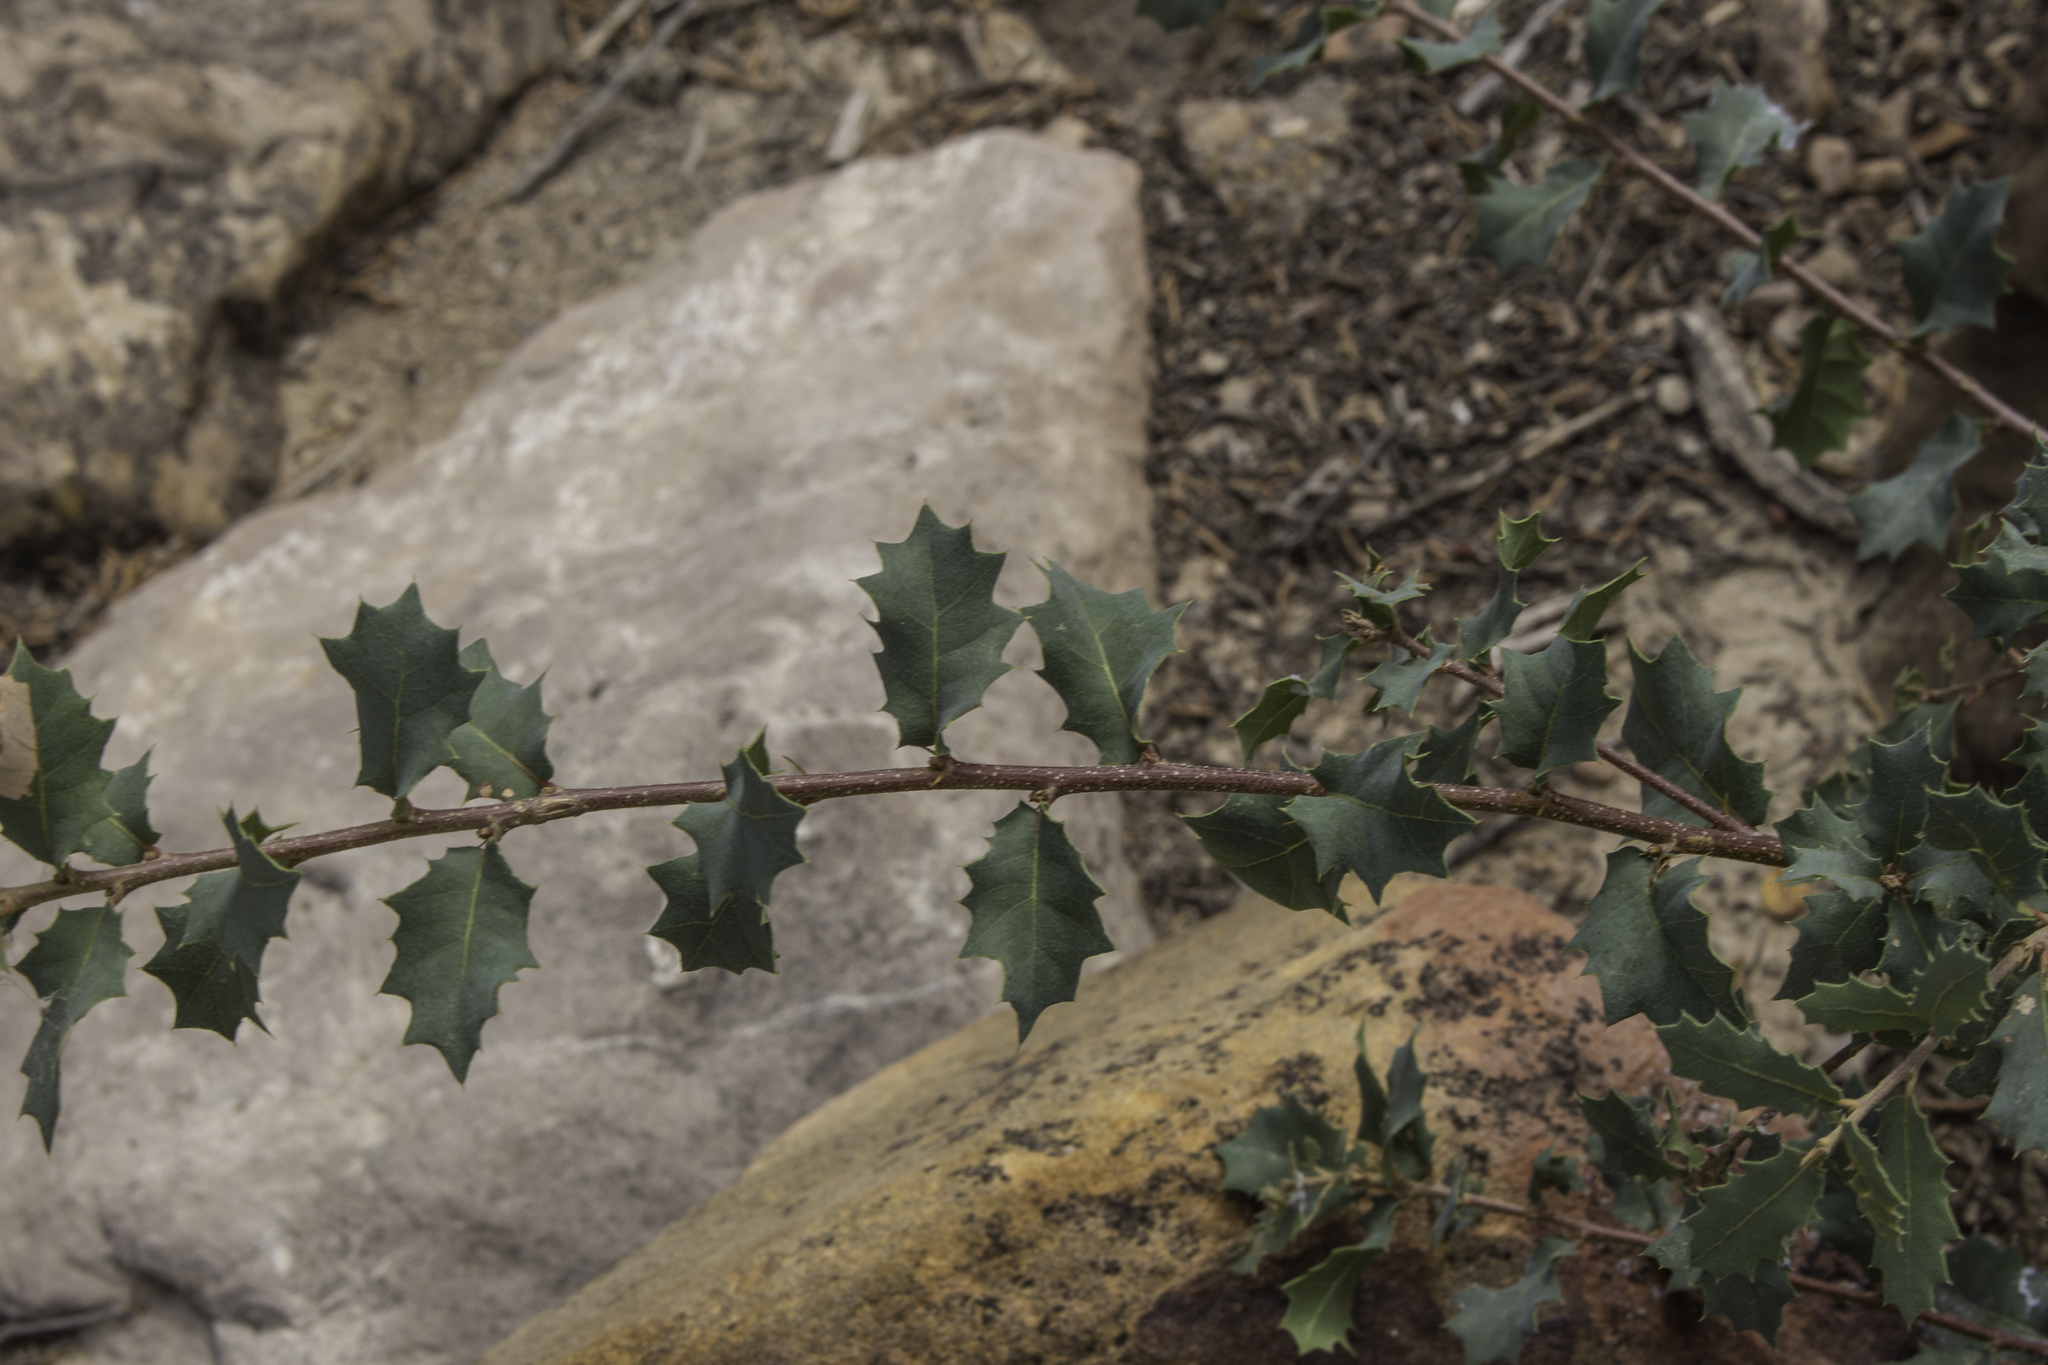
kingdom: Plantae
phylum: Tracheophyta
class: Magnoliopsida
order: Fagales
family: Fagaceae
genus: Quercus
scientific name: Quercus turbinella
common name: Sonoran scrub oak
